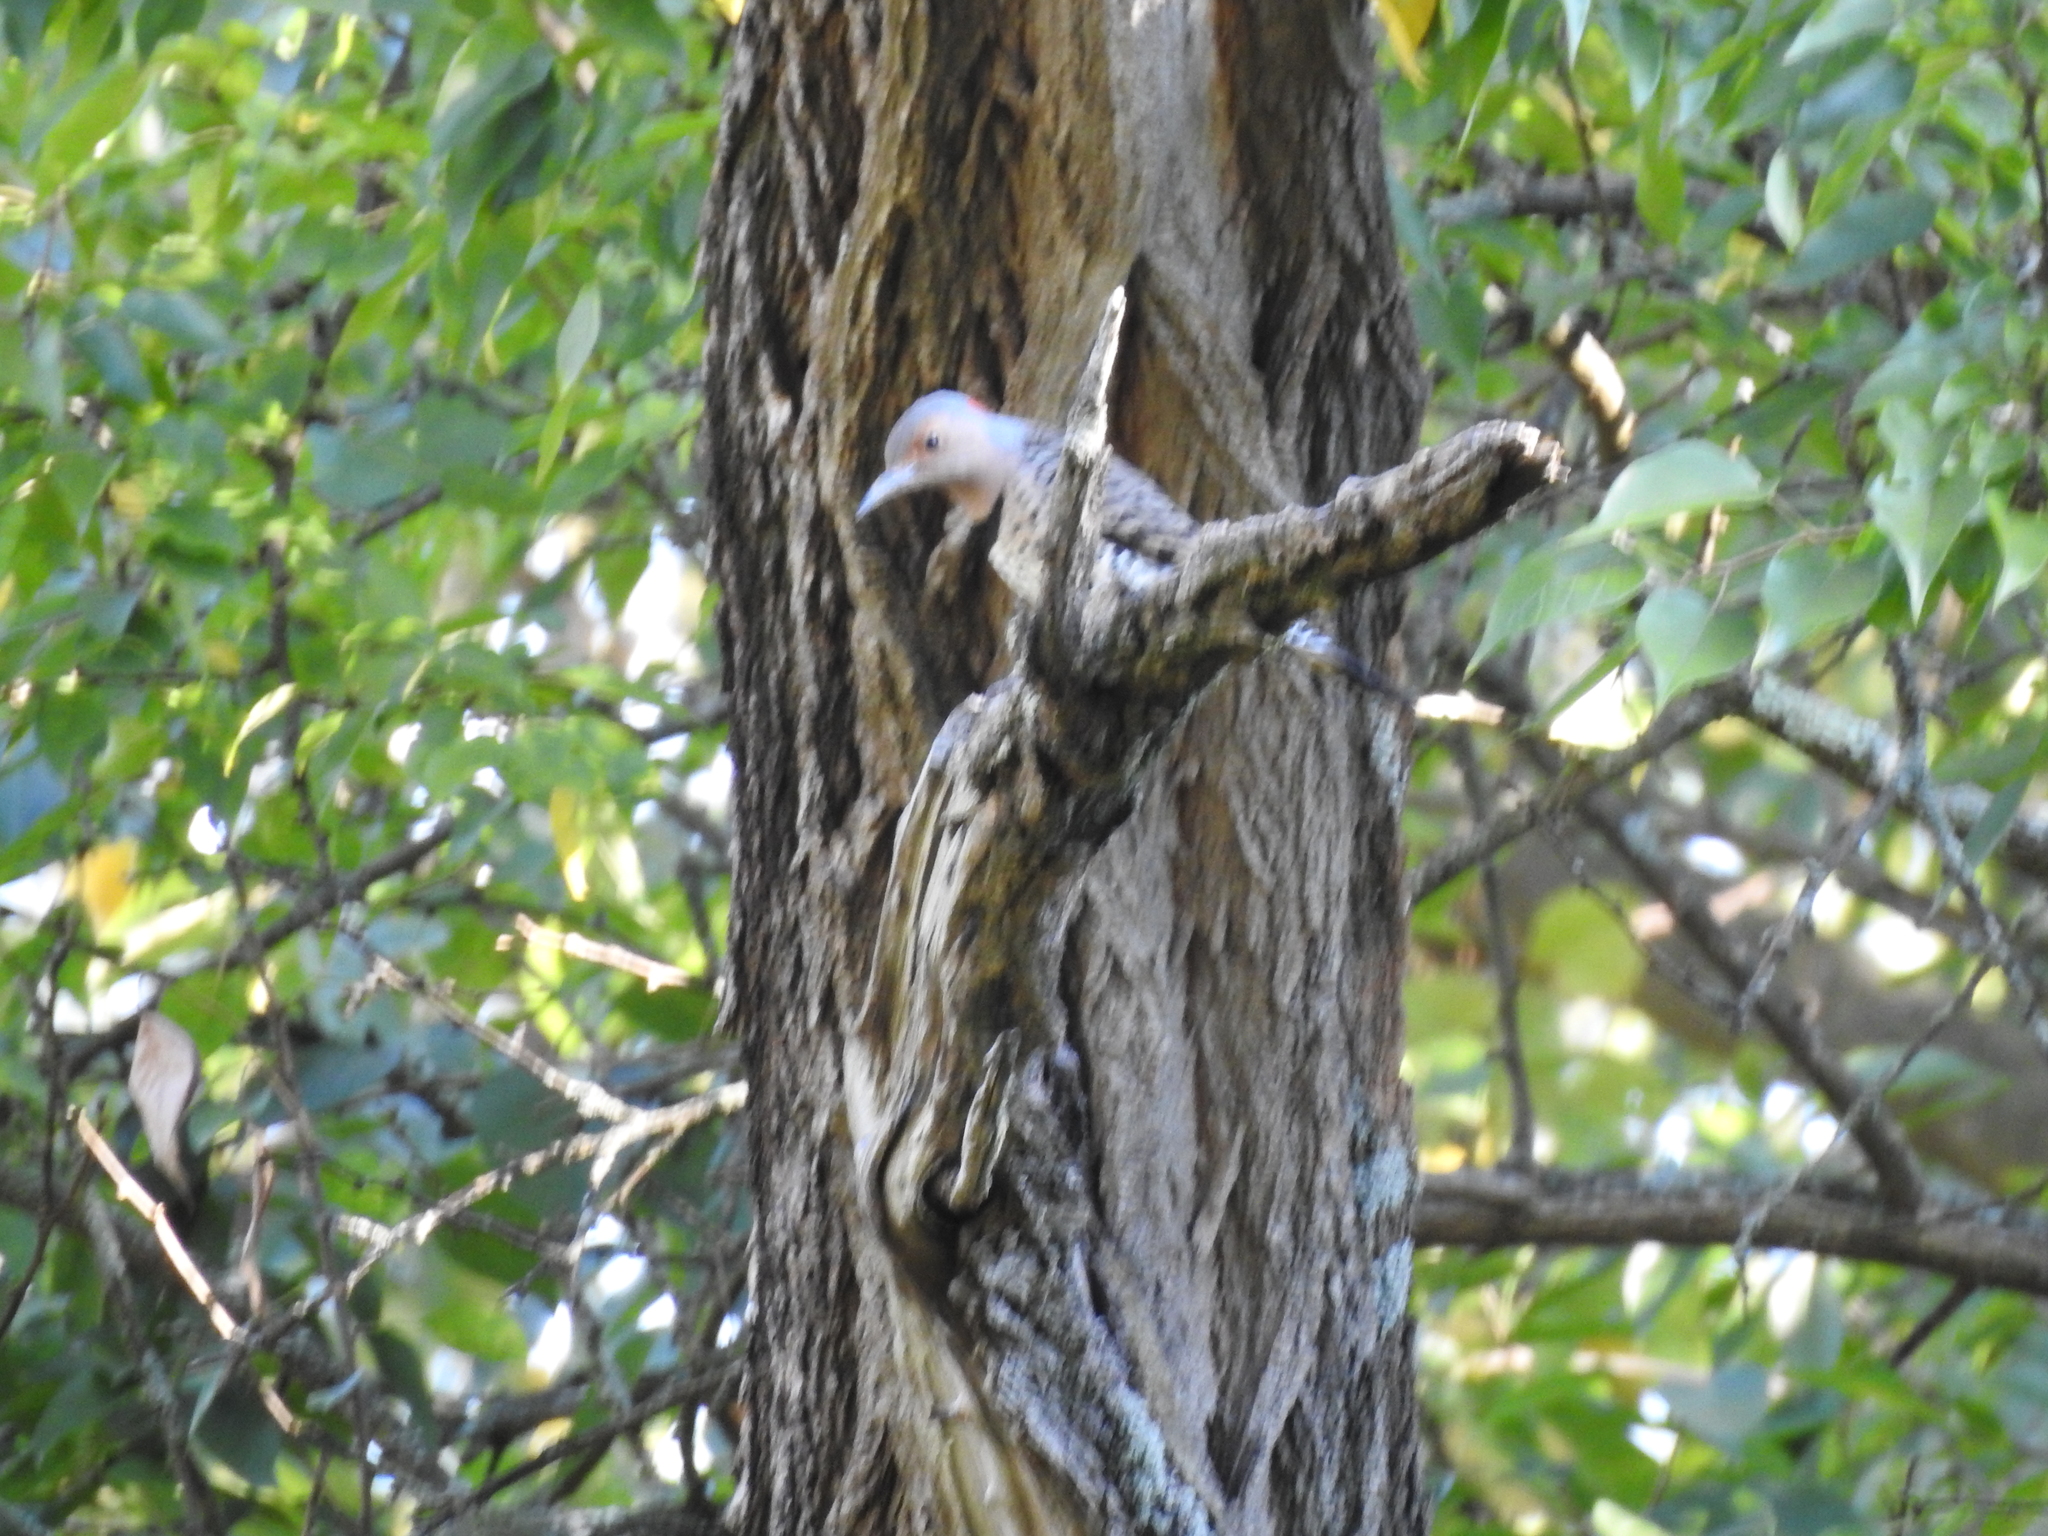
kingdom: Animalia
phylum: Chordata
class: Aves
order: Piciformes
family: Picidae
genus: Colaptes
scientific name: Colaptes auratus
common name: Northern flicker
